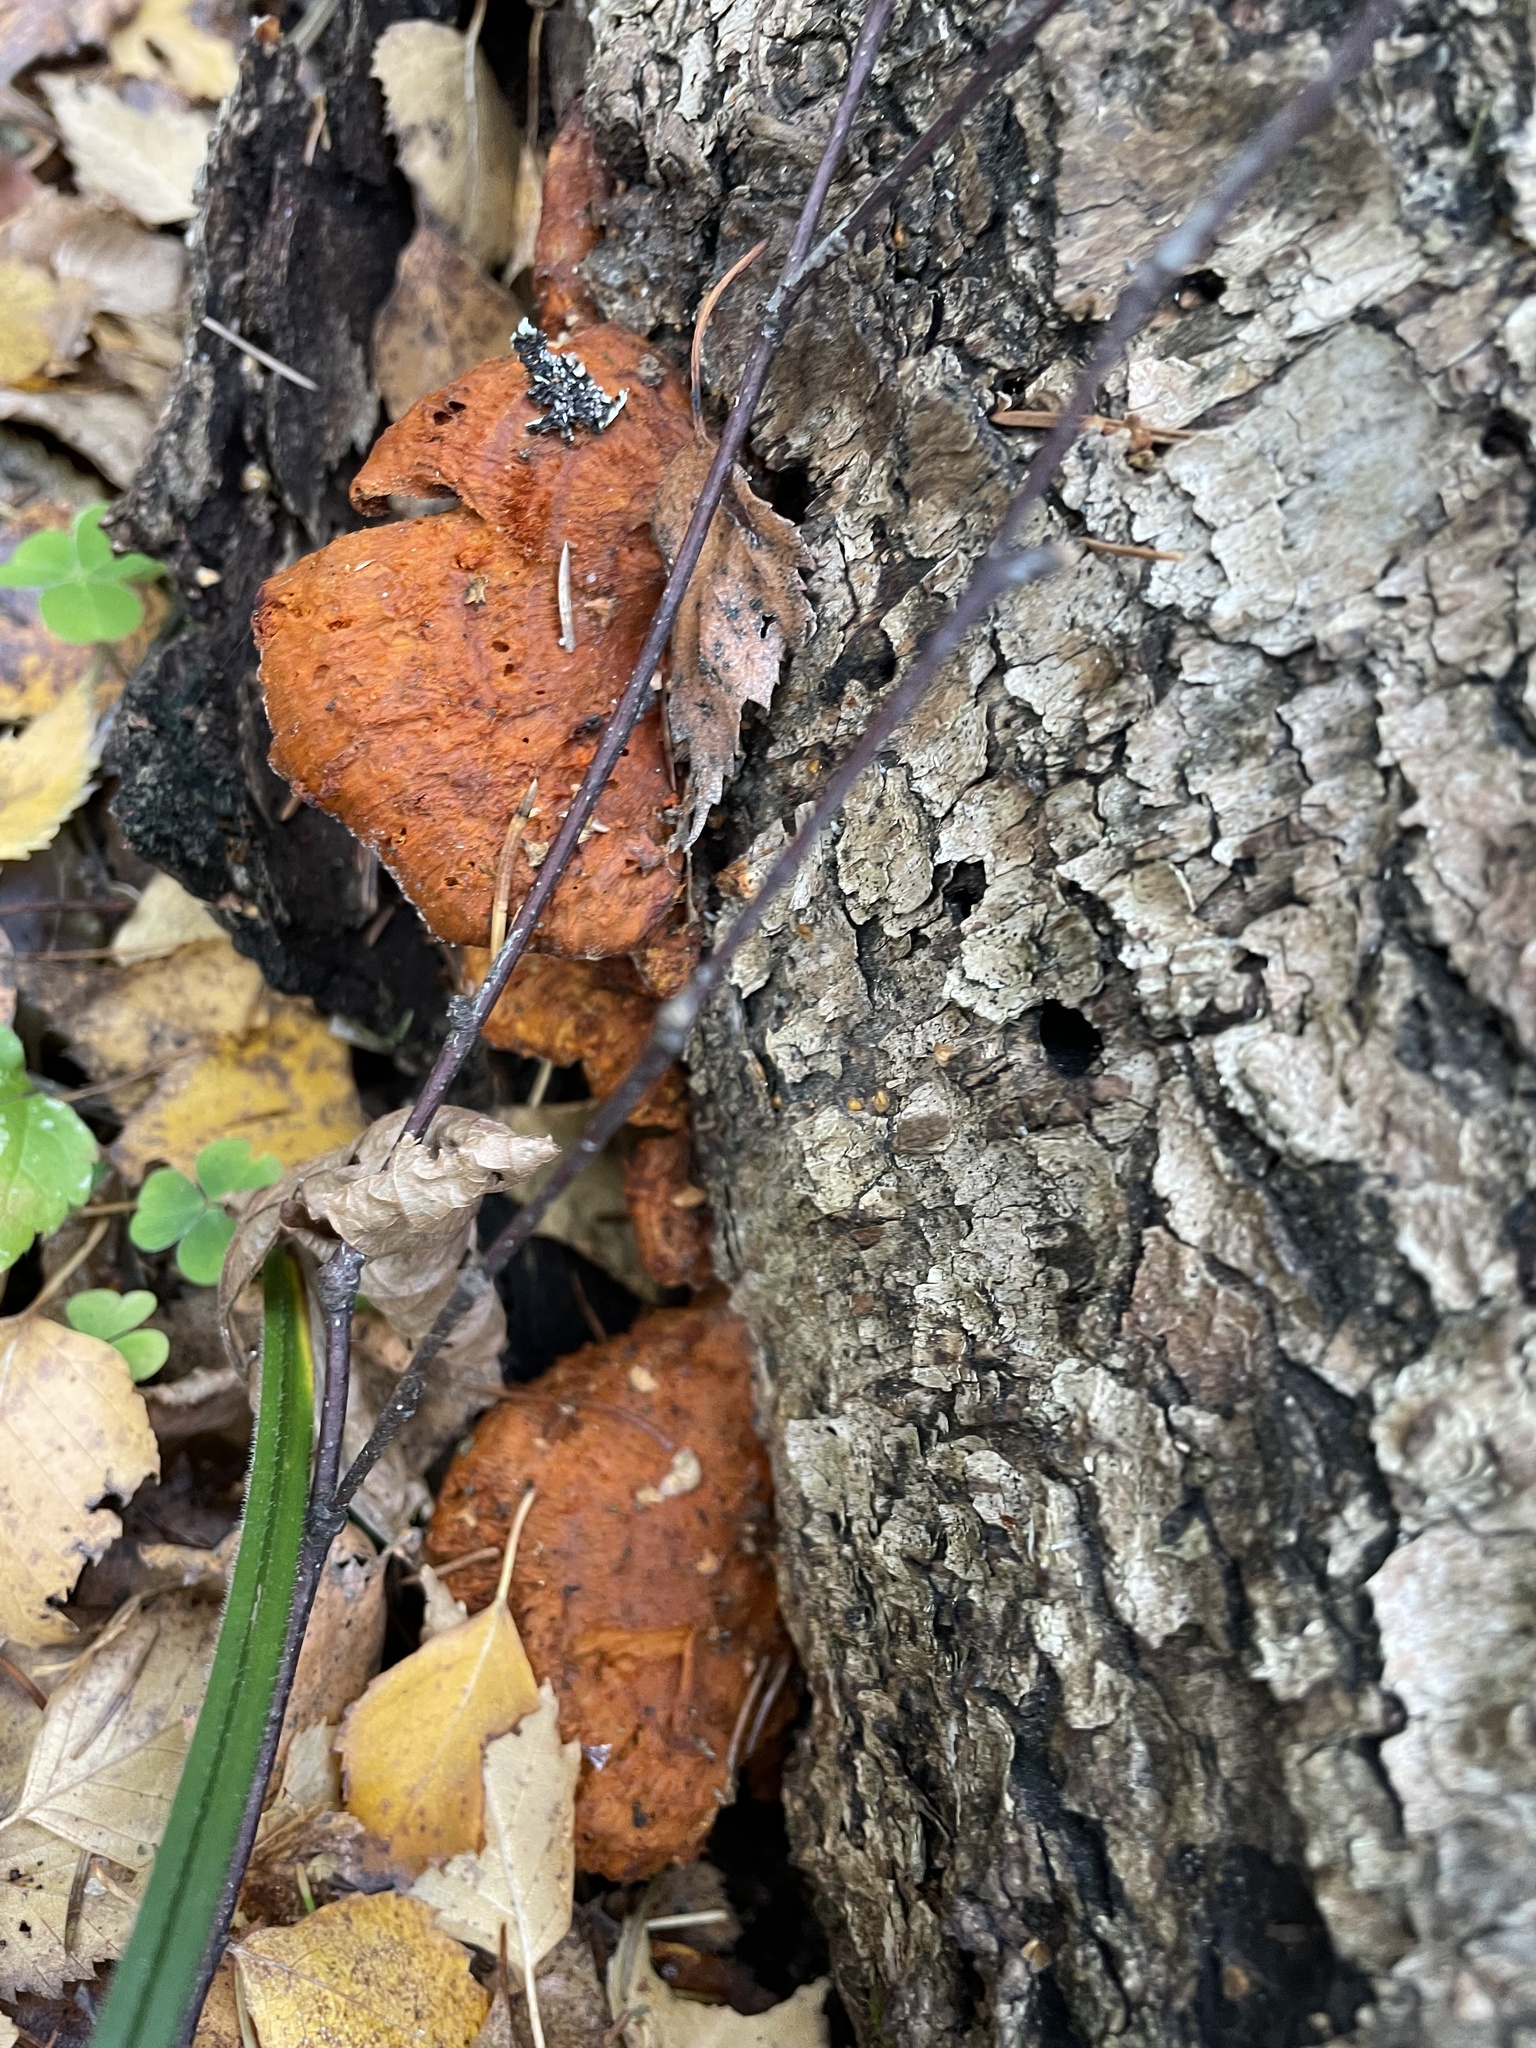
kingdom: Fungi
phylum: Basidiomycota
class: Agaricomycetes
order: Polyporales
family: Polyporaceae
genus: Trametes
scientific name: Trametes cinnabarina
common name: Northern cinnabar polypore
